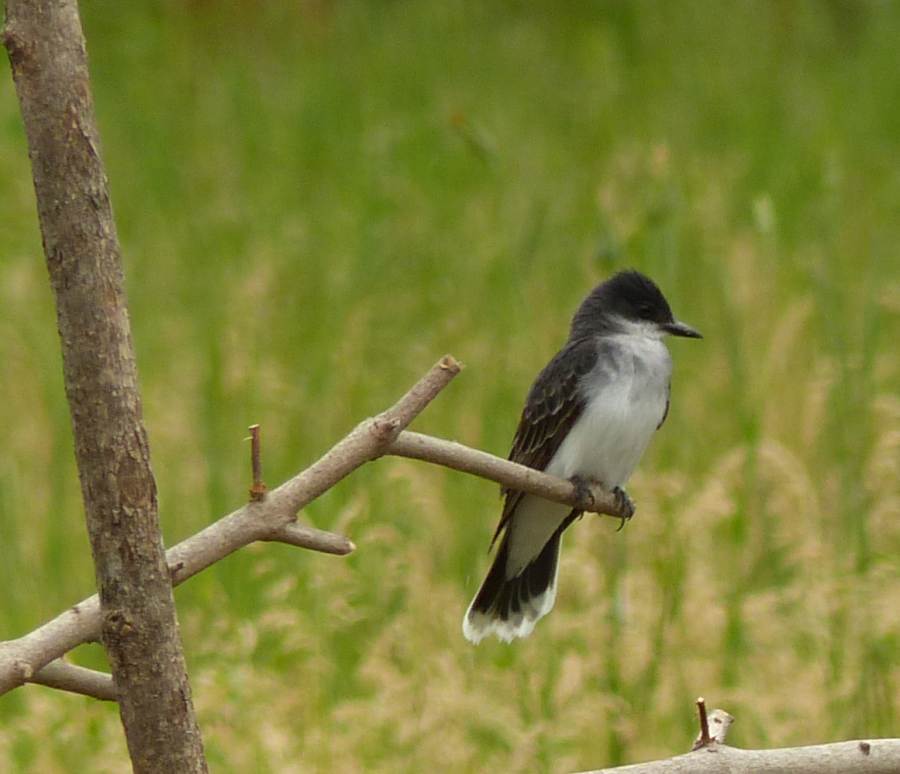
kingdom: Animalia
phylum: Chordata
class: Aves
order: Passeriformes
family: Tyrannidae
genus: Tyrannus
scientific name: Tyrannus tyrannus
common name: Eastern kingbird
